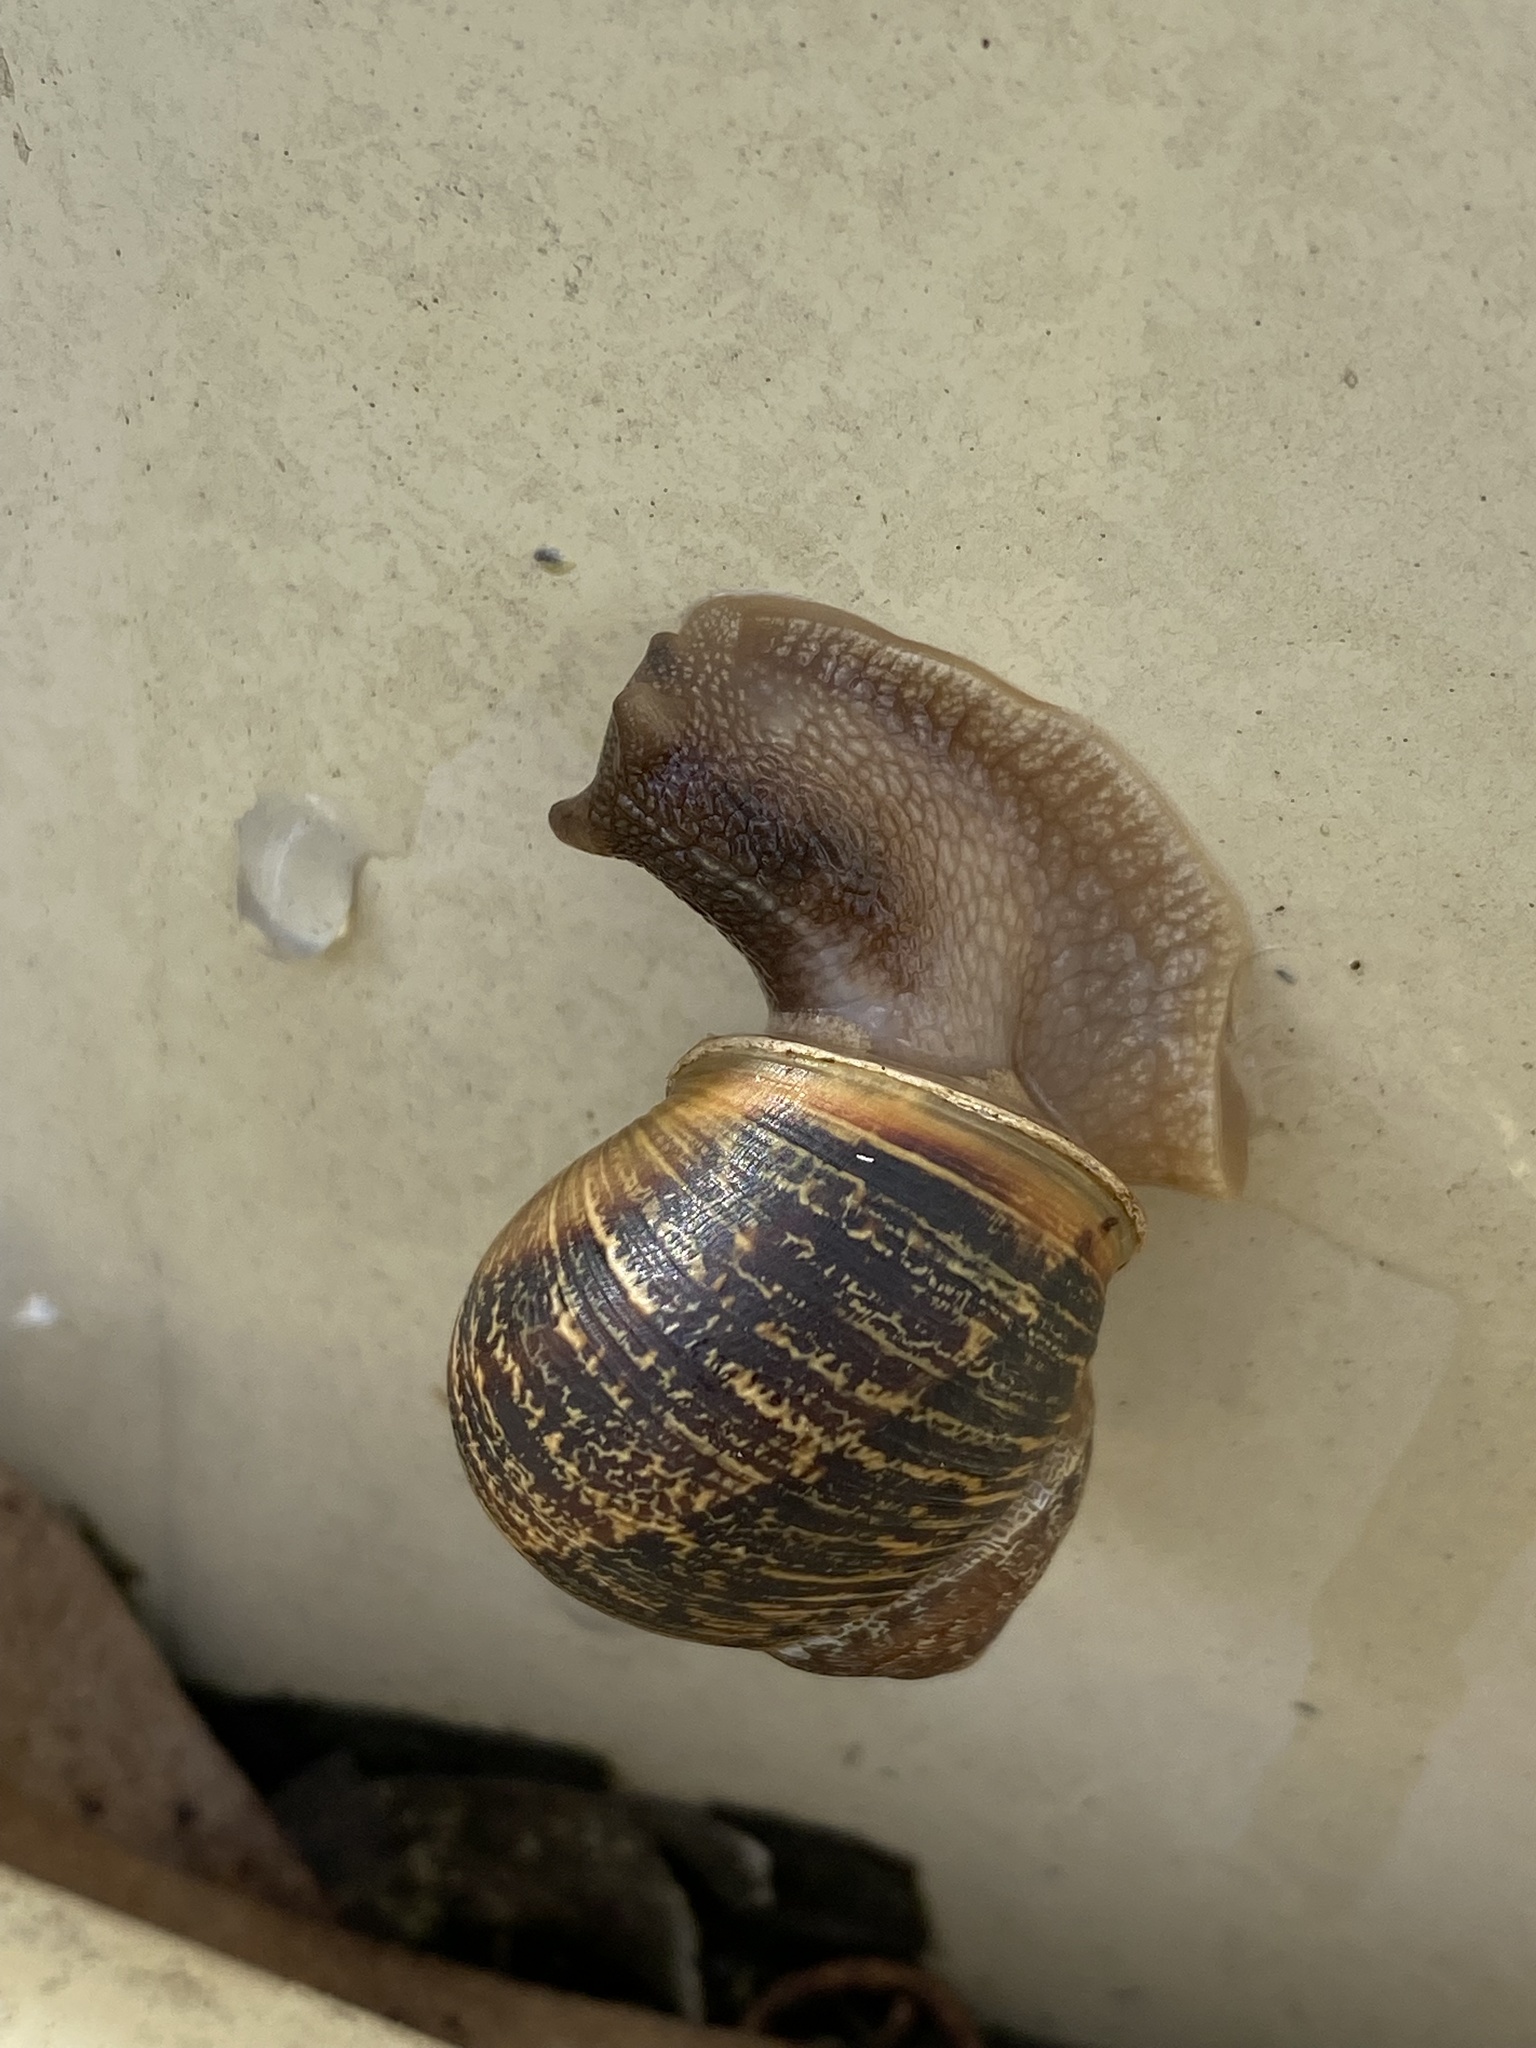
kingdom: Animalia
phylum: Mollusca
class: Gastropoda
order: Stylommatophora
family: Helicidae
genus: Cornu
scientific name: Cornu aspersum
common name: Brown garden snail
